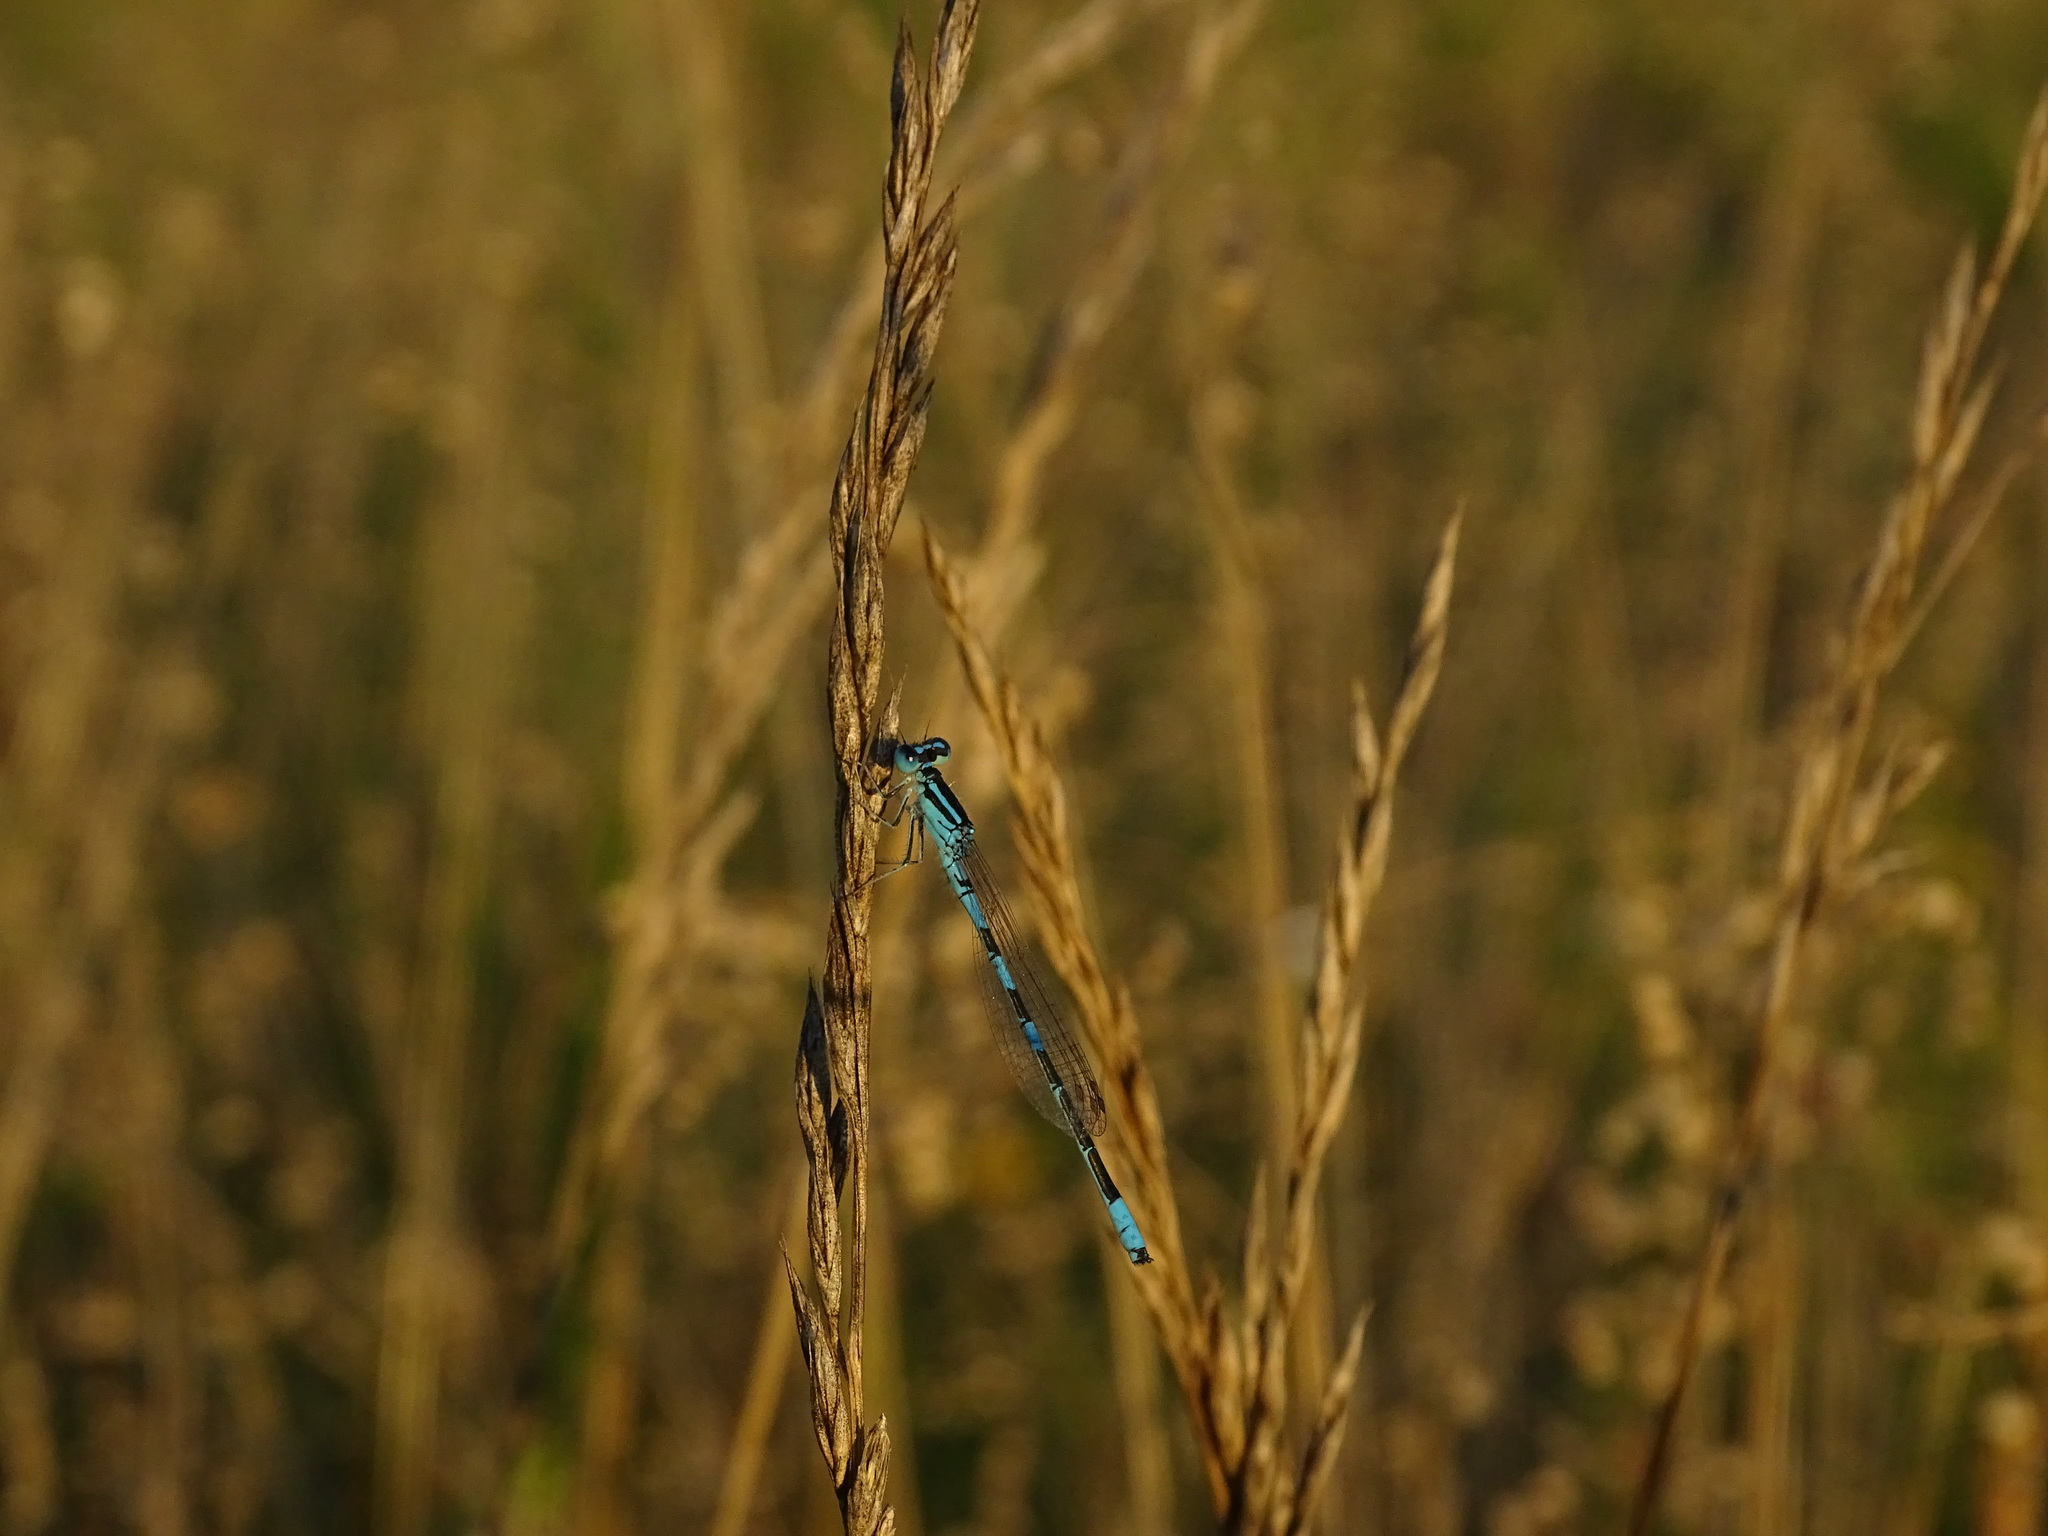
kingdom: Animalia
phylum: Arthropoda
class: Insecta
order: Odonata
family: Coenagrionidae
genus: Coenagrion
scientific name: Coenagrion scitulum
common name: Dainty bluet
